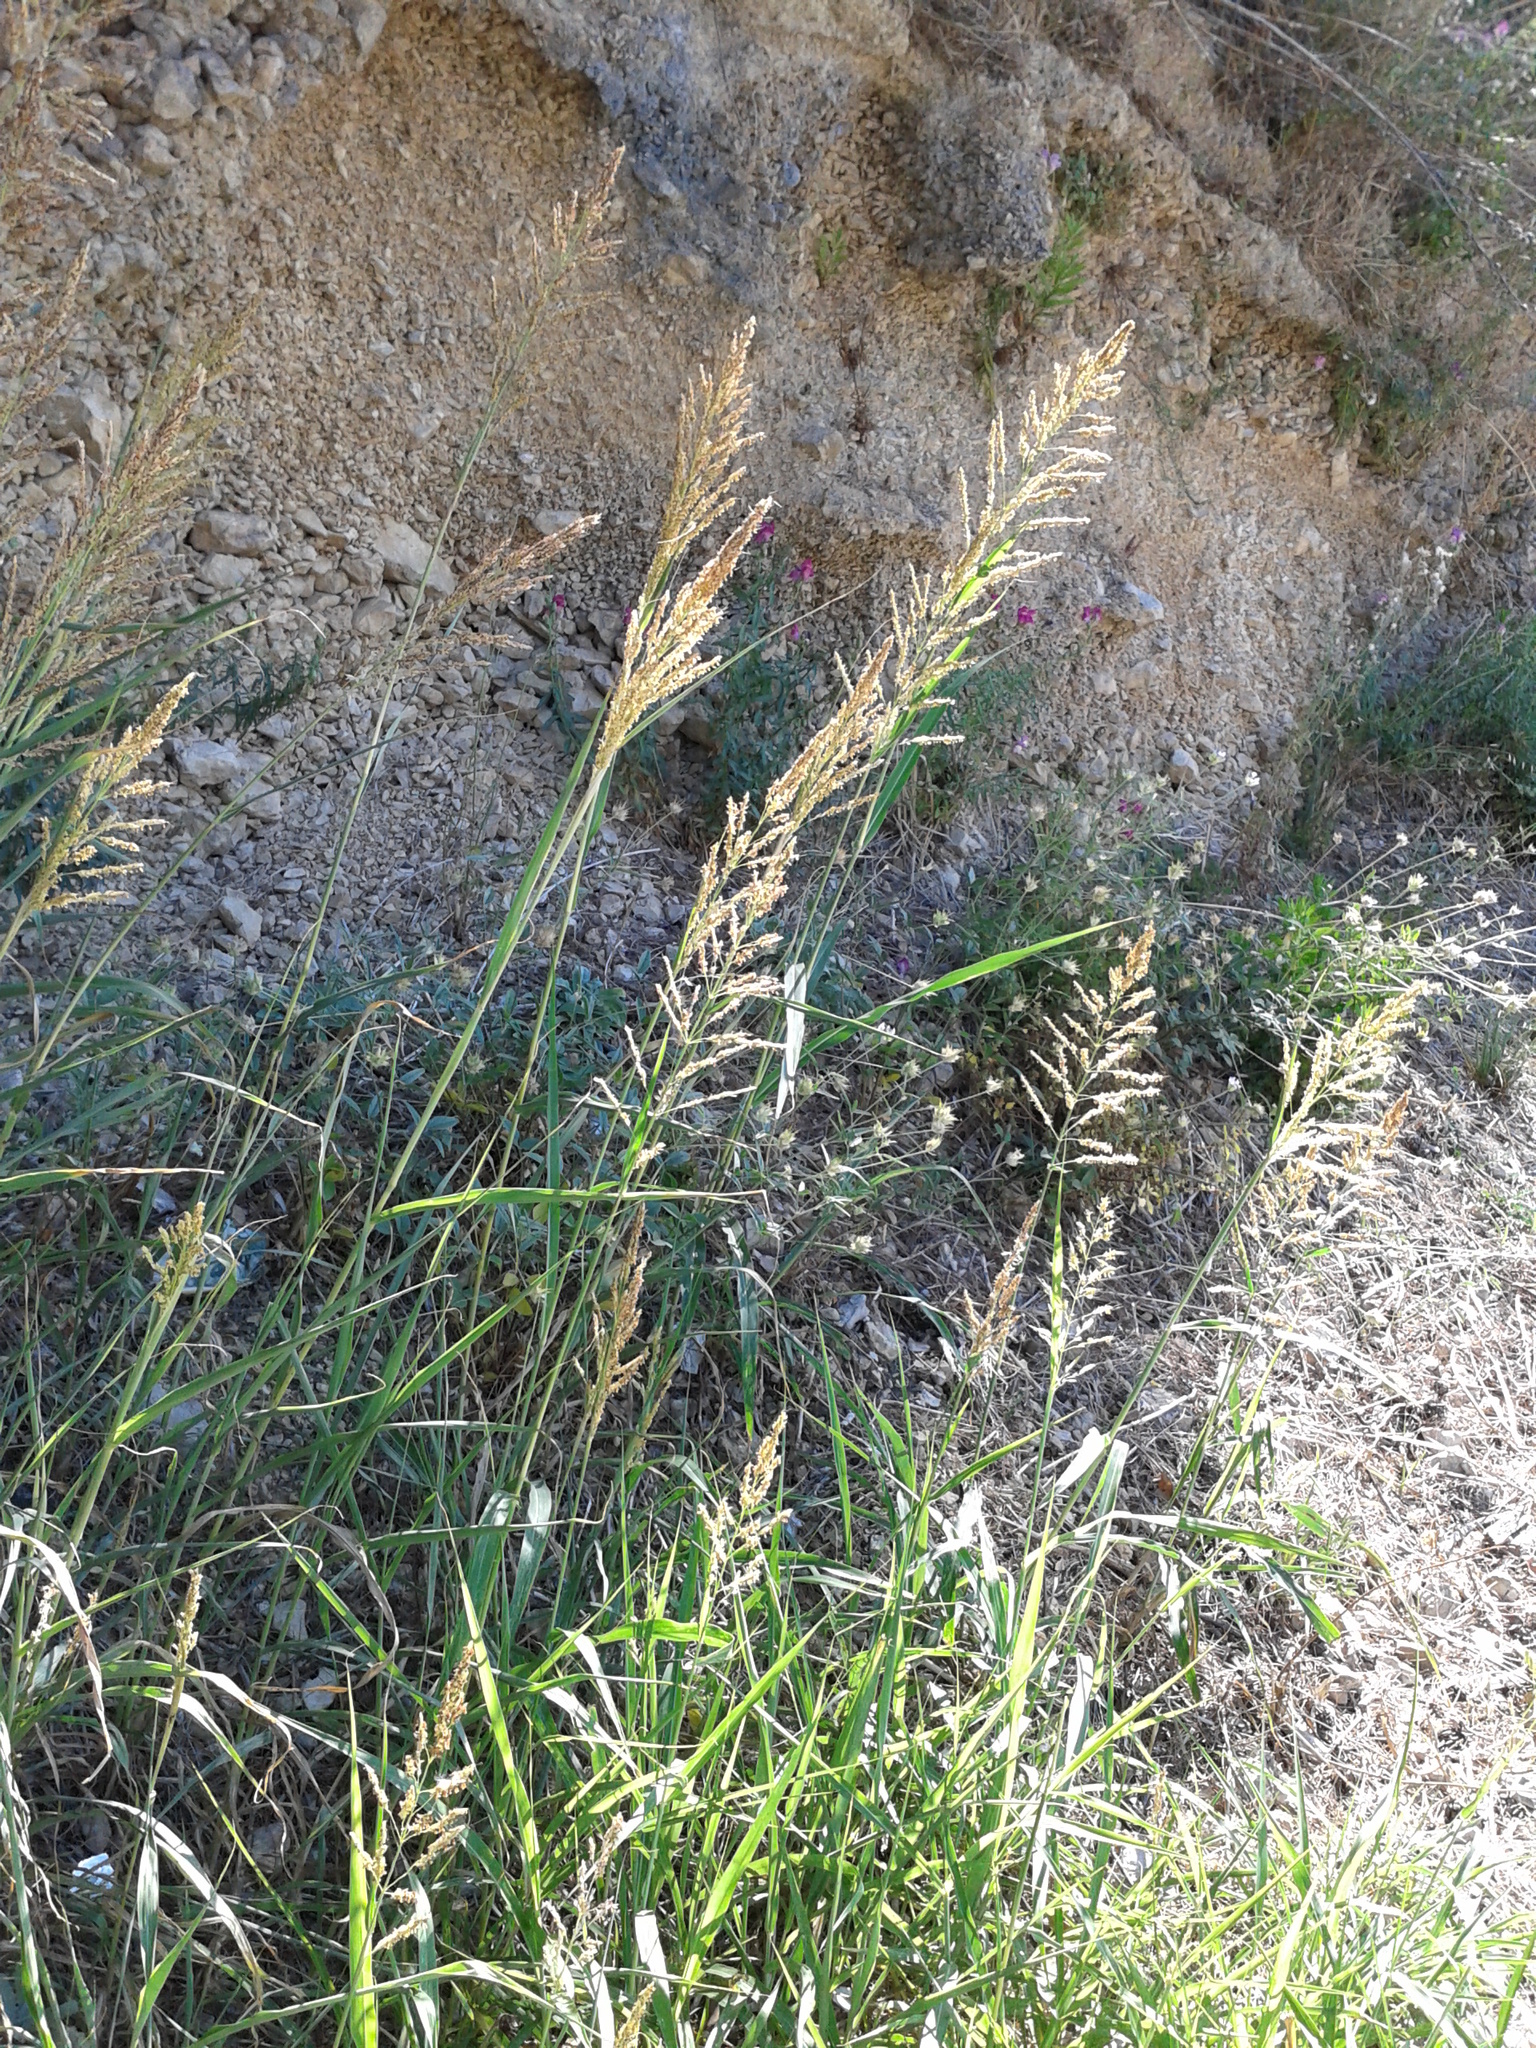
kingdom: Plantae
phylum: Tracheophyta
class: Liliopsida
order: Poales
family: Poaceae
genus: Sorghum
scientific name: Sorghum halepense
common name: Johnson-grass
